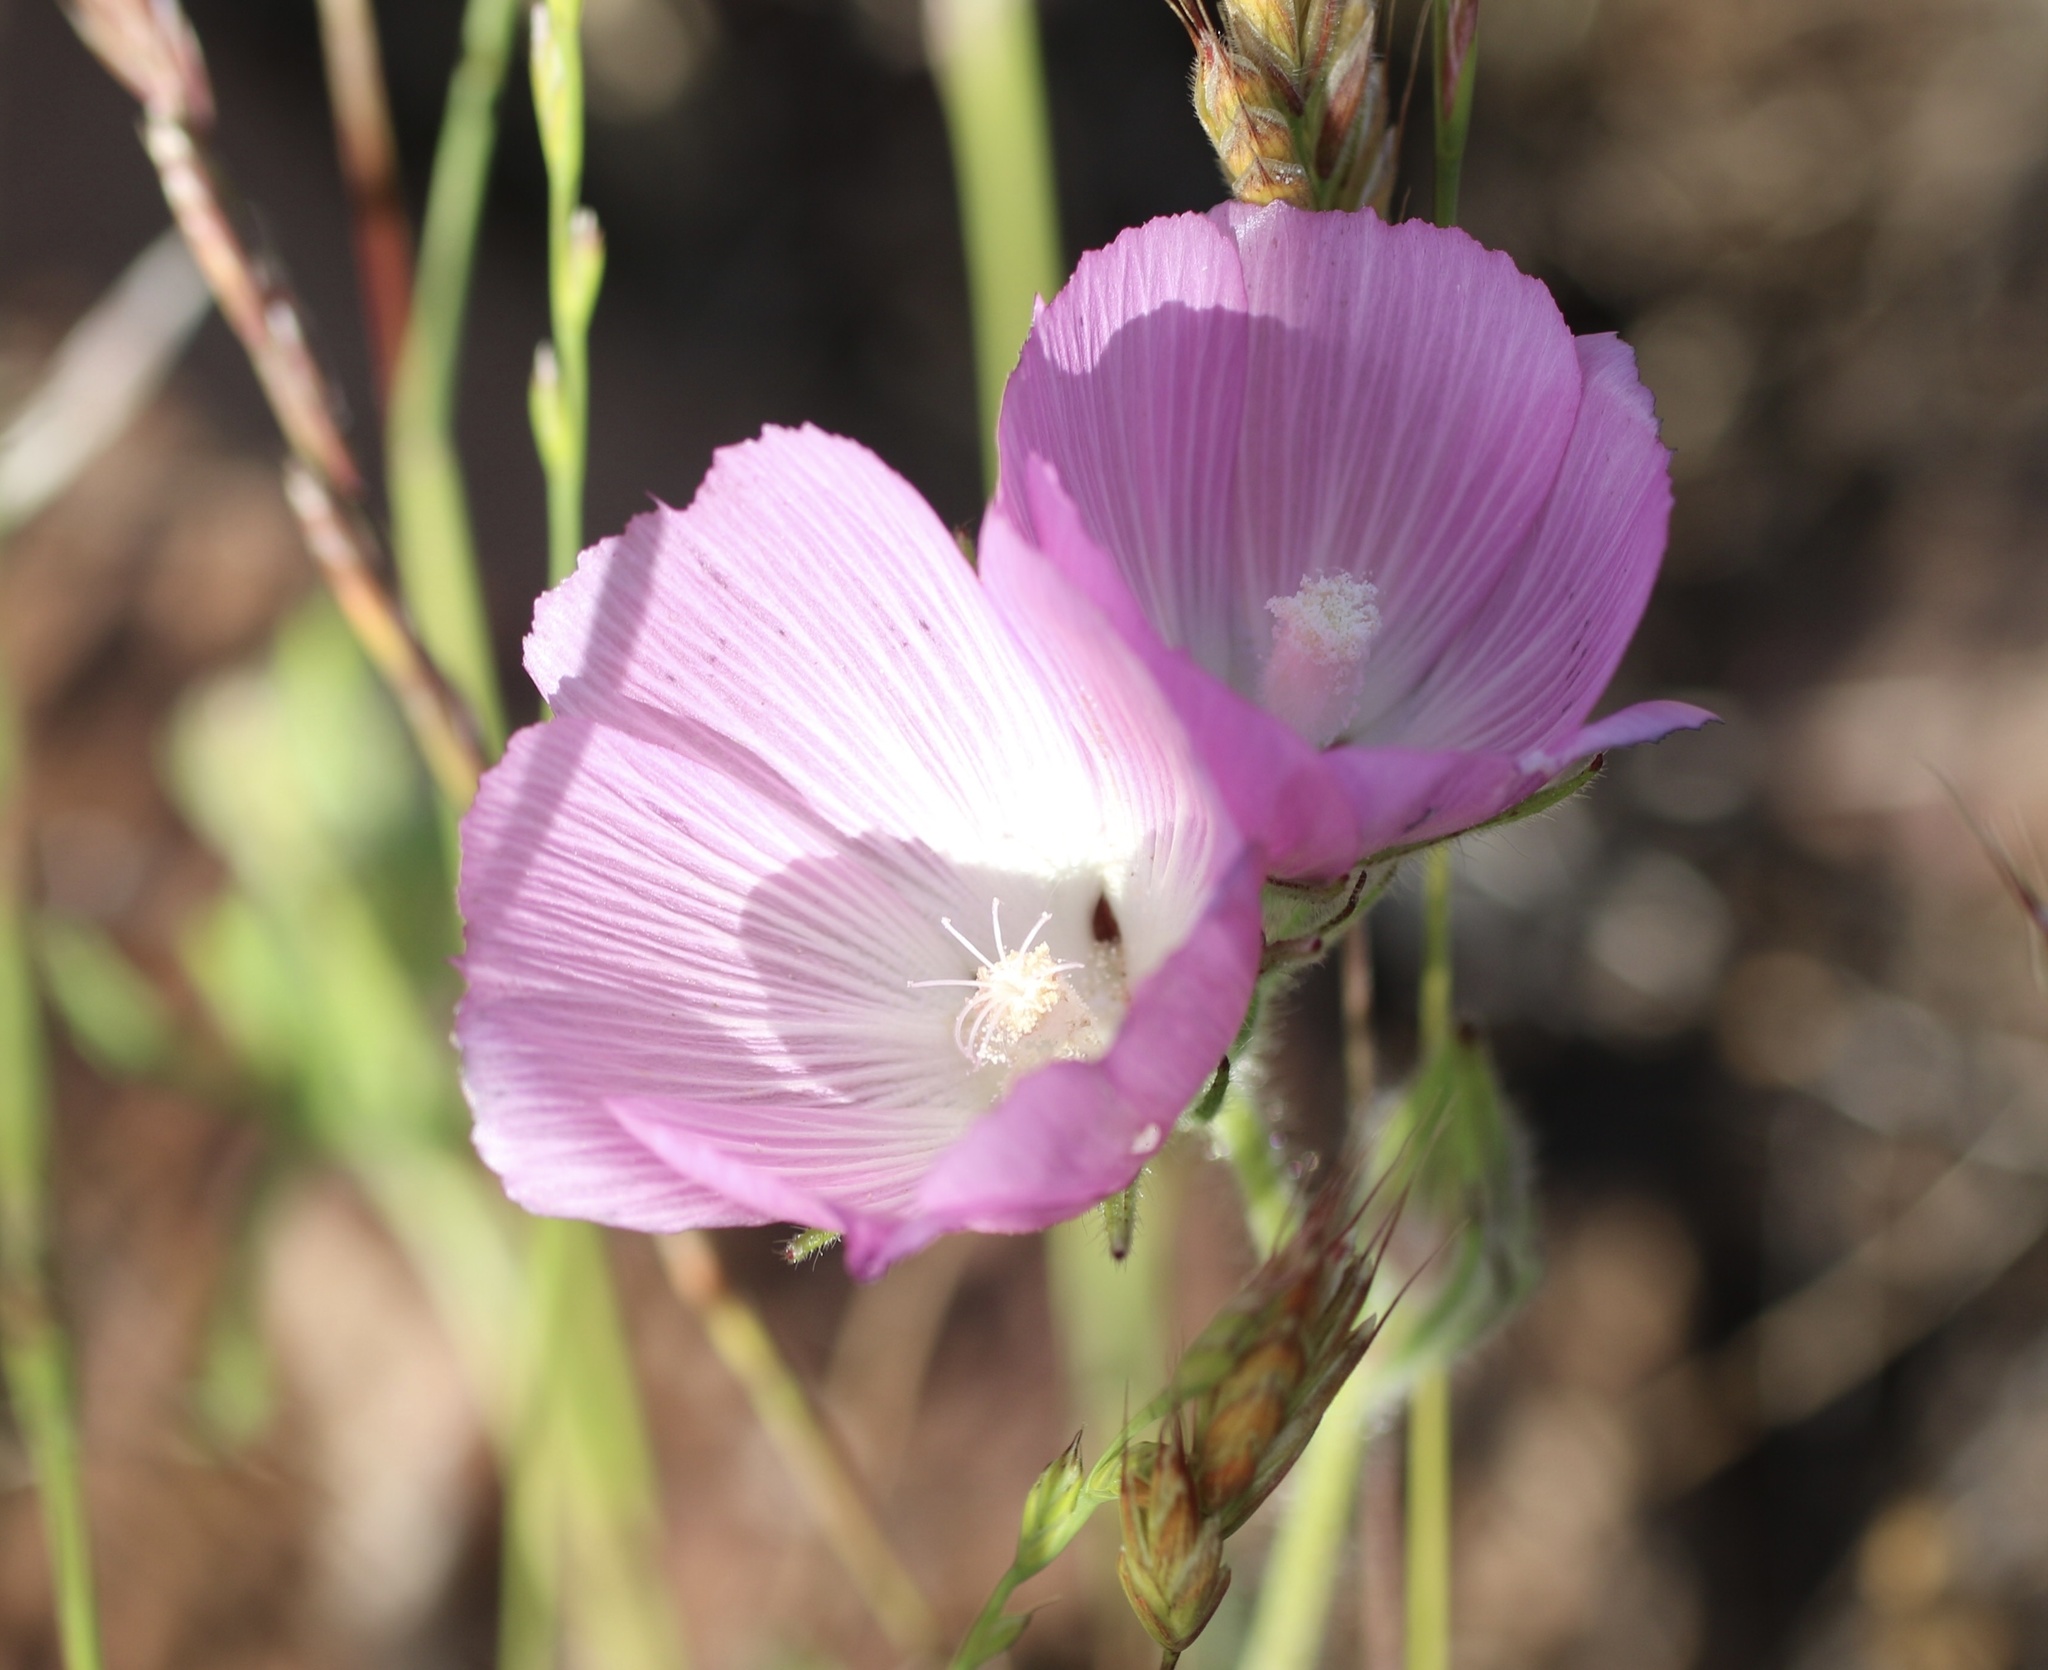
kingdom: Plantae
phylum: Tracheophyta
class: Magnoliopsida
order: Malvales
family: Malvaceae
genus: Sidalcea
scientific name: Sidalcea diploscypha
